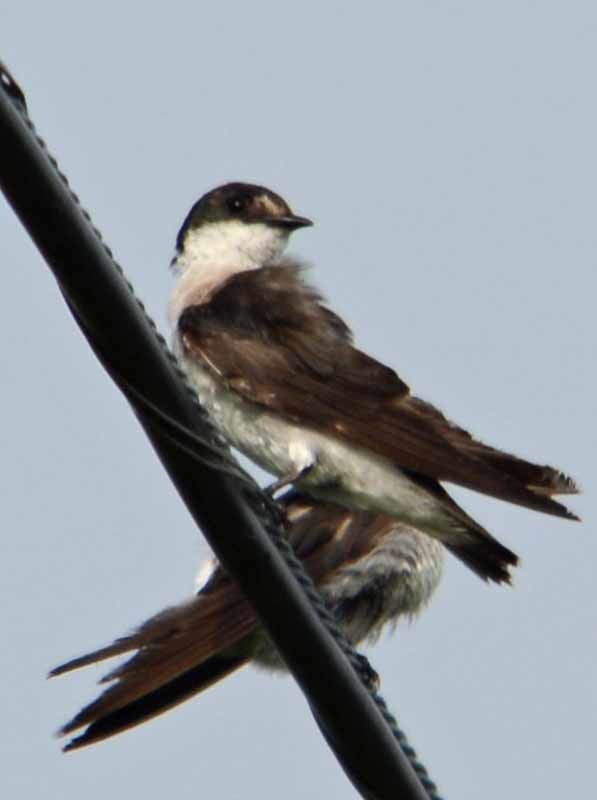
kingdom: Animalia
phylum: Chordata
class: Aves
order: Passeriformes
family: Hirundinidae
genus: Tachycineta
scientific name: Tachycineta albilinea
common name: Mangrove swallow
